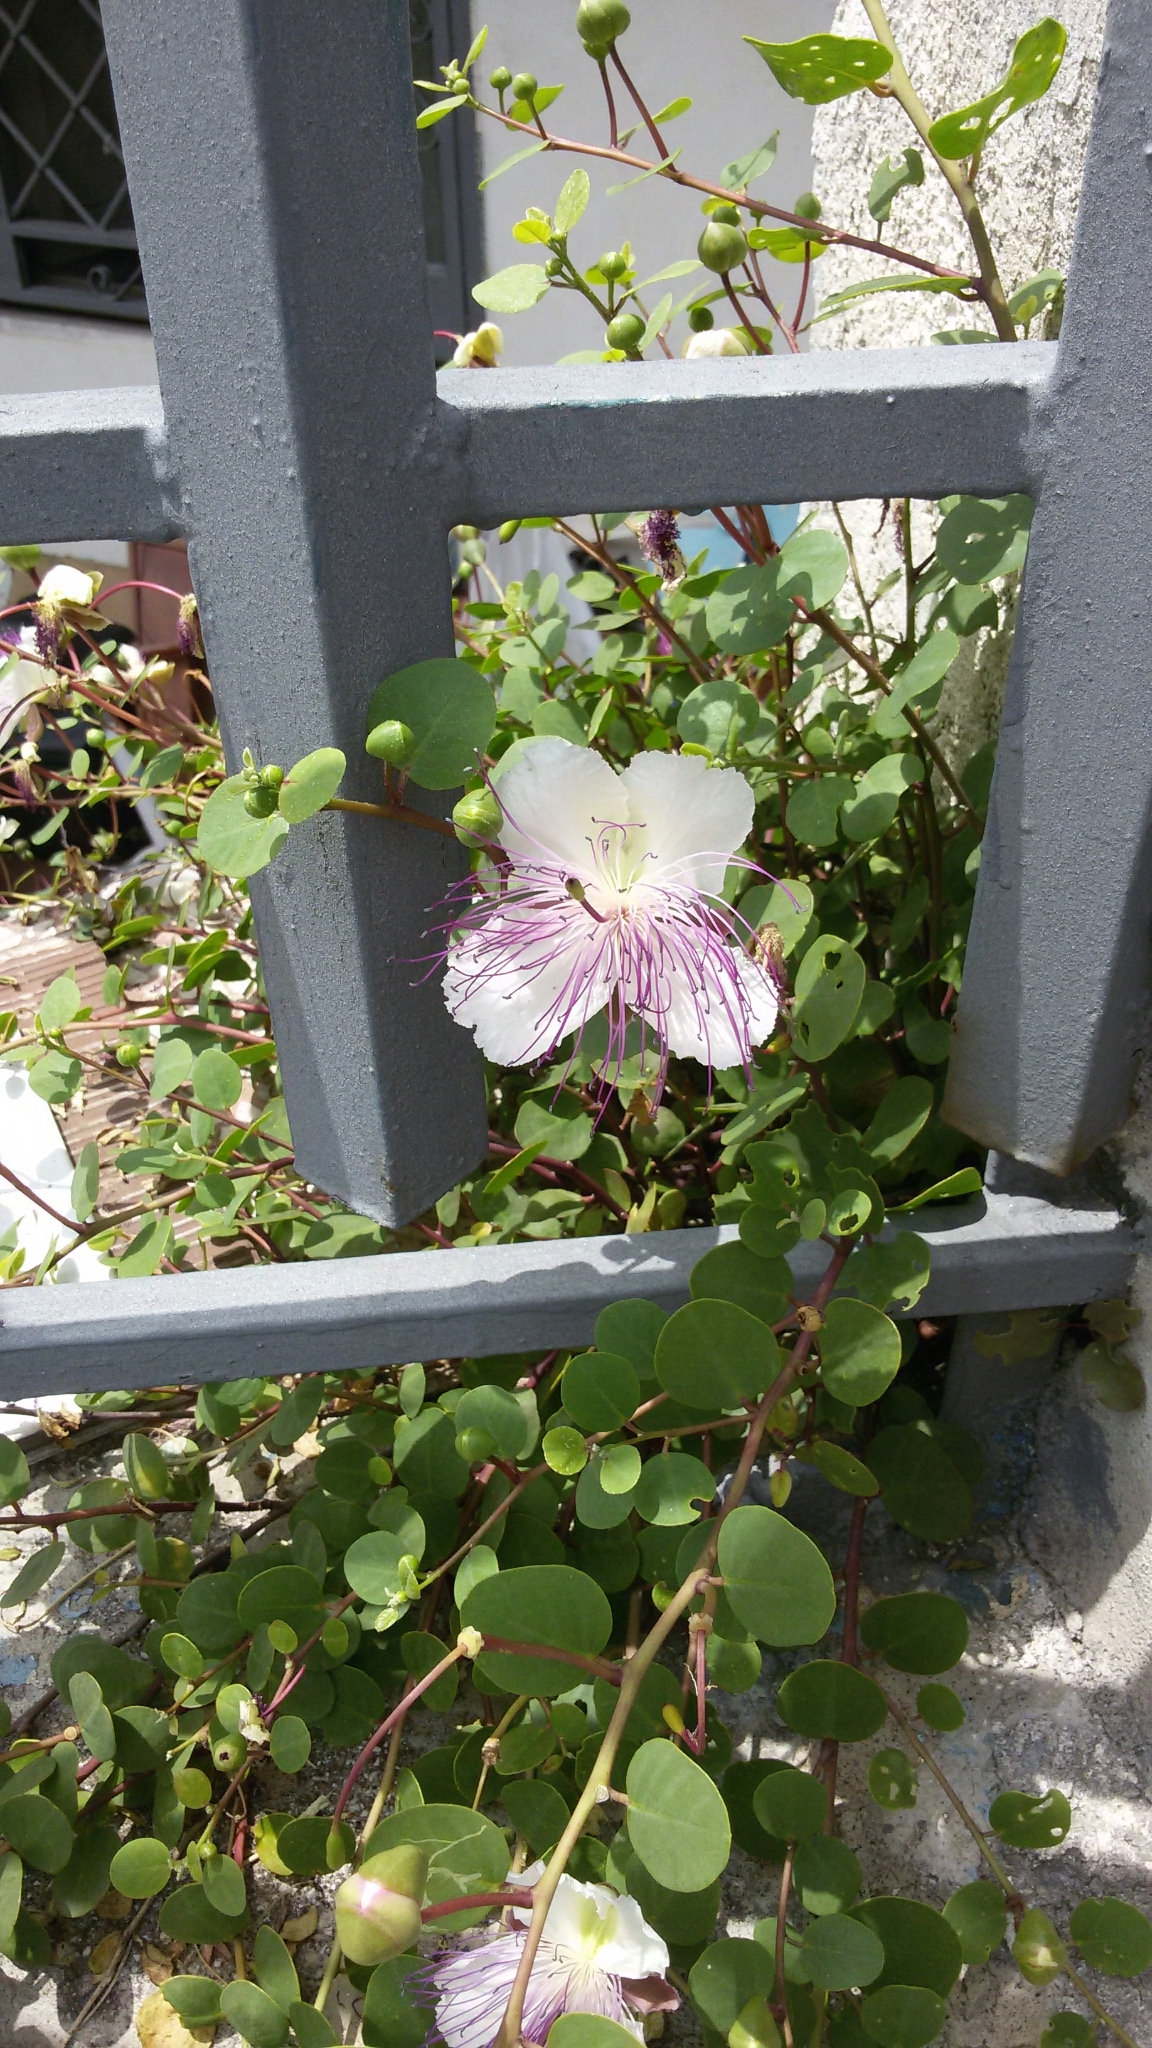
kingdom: Plantae
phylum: Tracheophyta
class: Magnoliopsida
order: Brassicales
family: Capparaceae
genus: Capparis
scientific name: Capparis spinosa
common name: Caper
